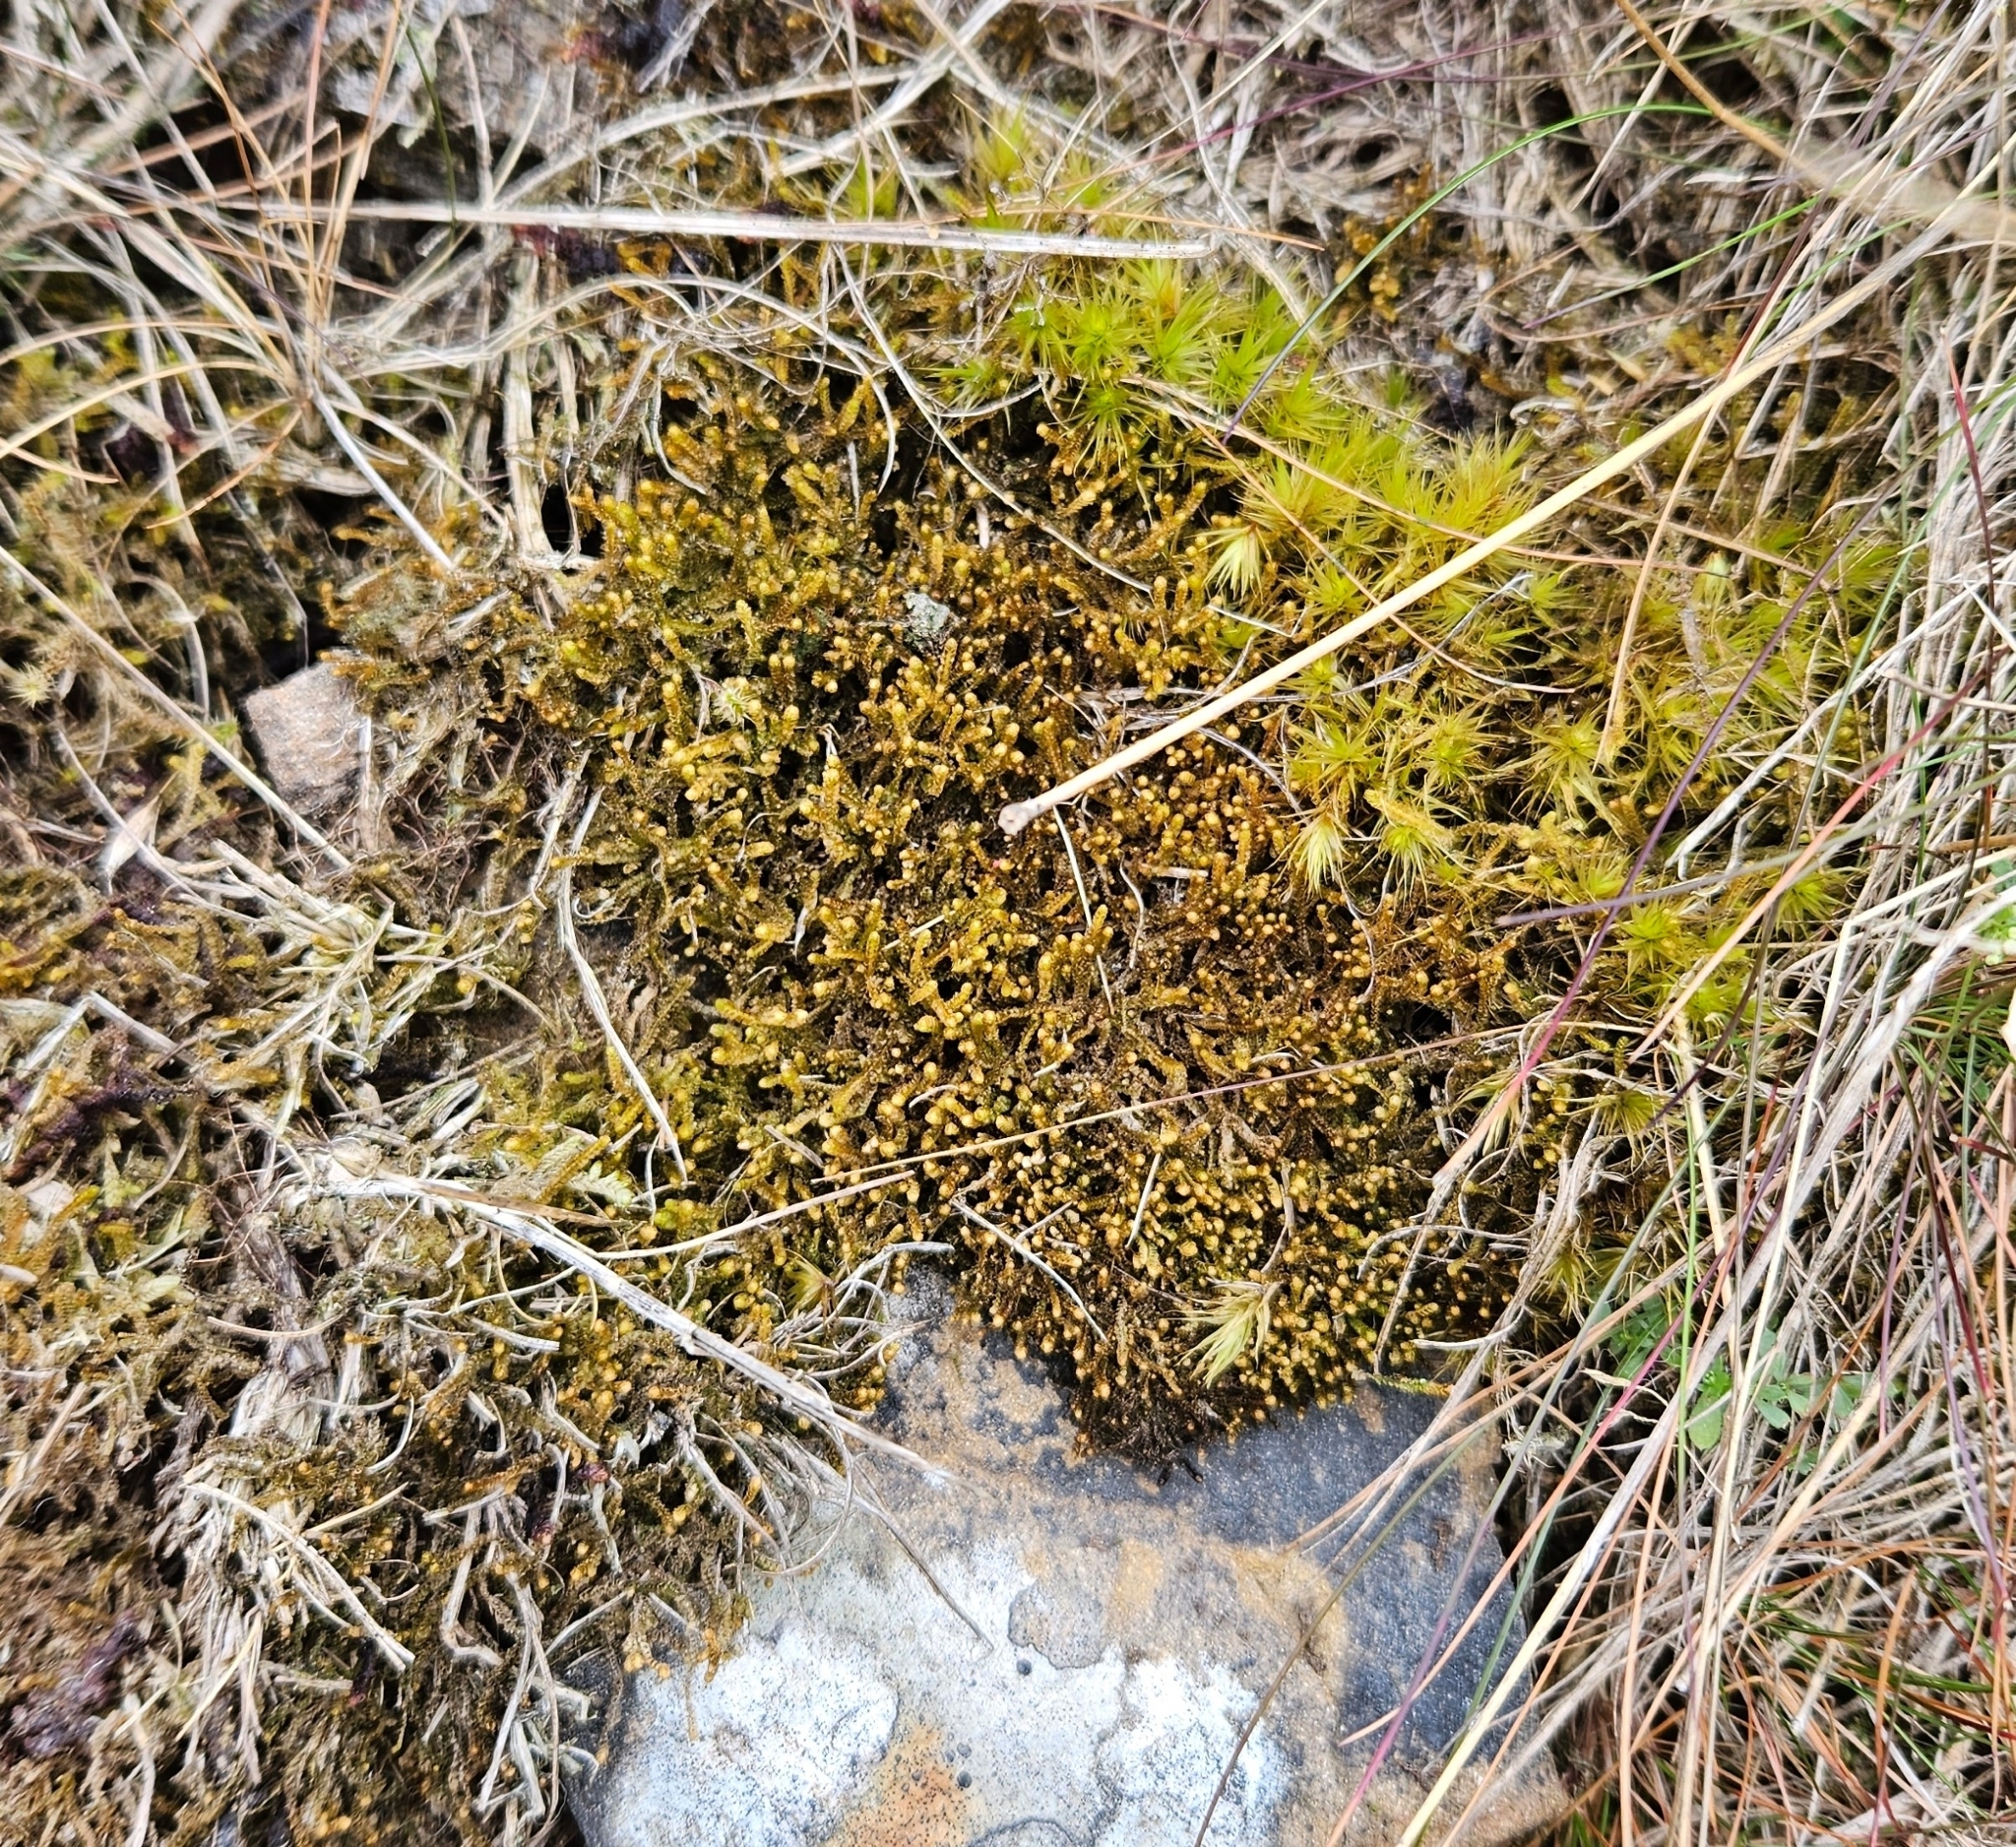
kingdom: Plantae
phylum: Marchantiophyta
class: Jungermanniopsida
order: Jungermanniales
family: Anastrophyllaceae
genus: Neoorthocaulis
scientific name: Neoorthocaulis floerkei
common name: Floerke's barbilophozia
